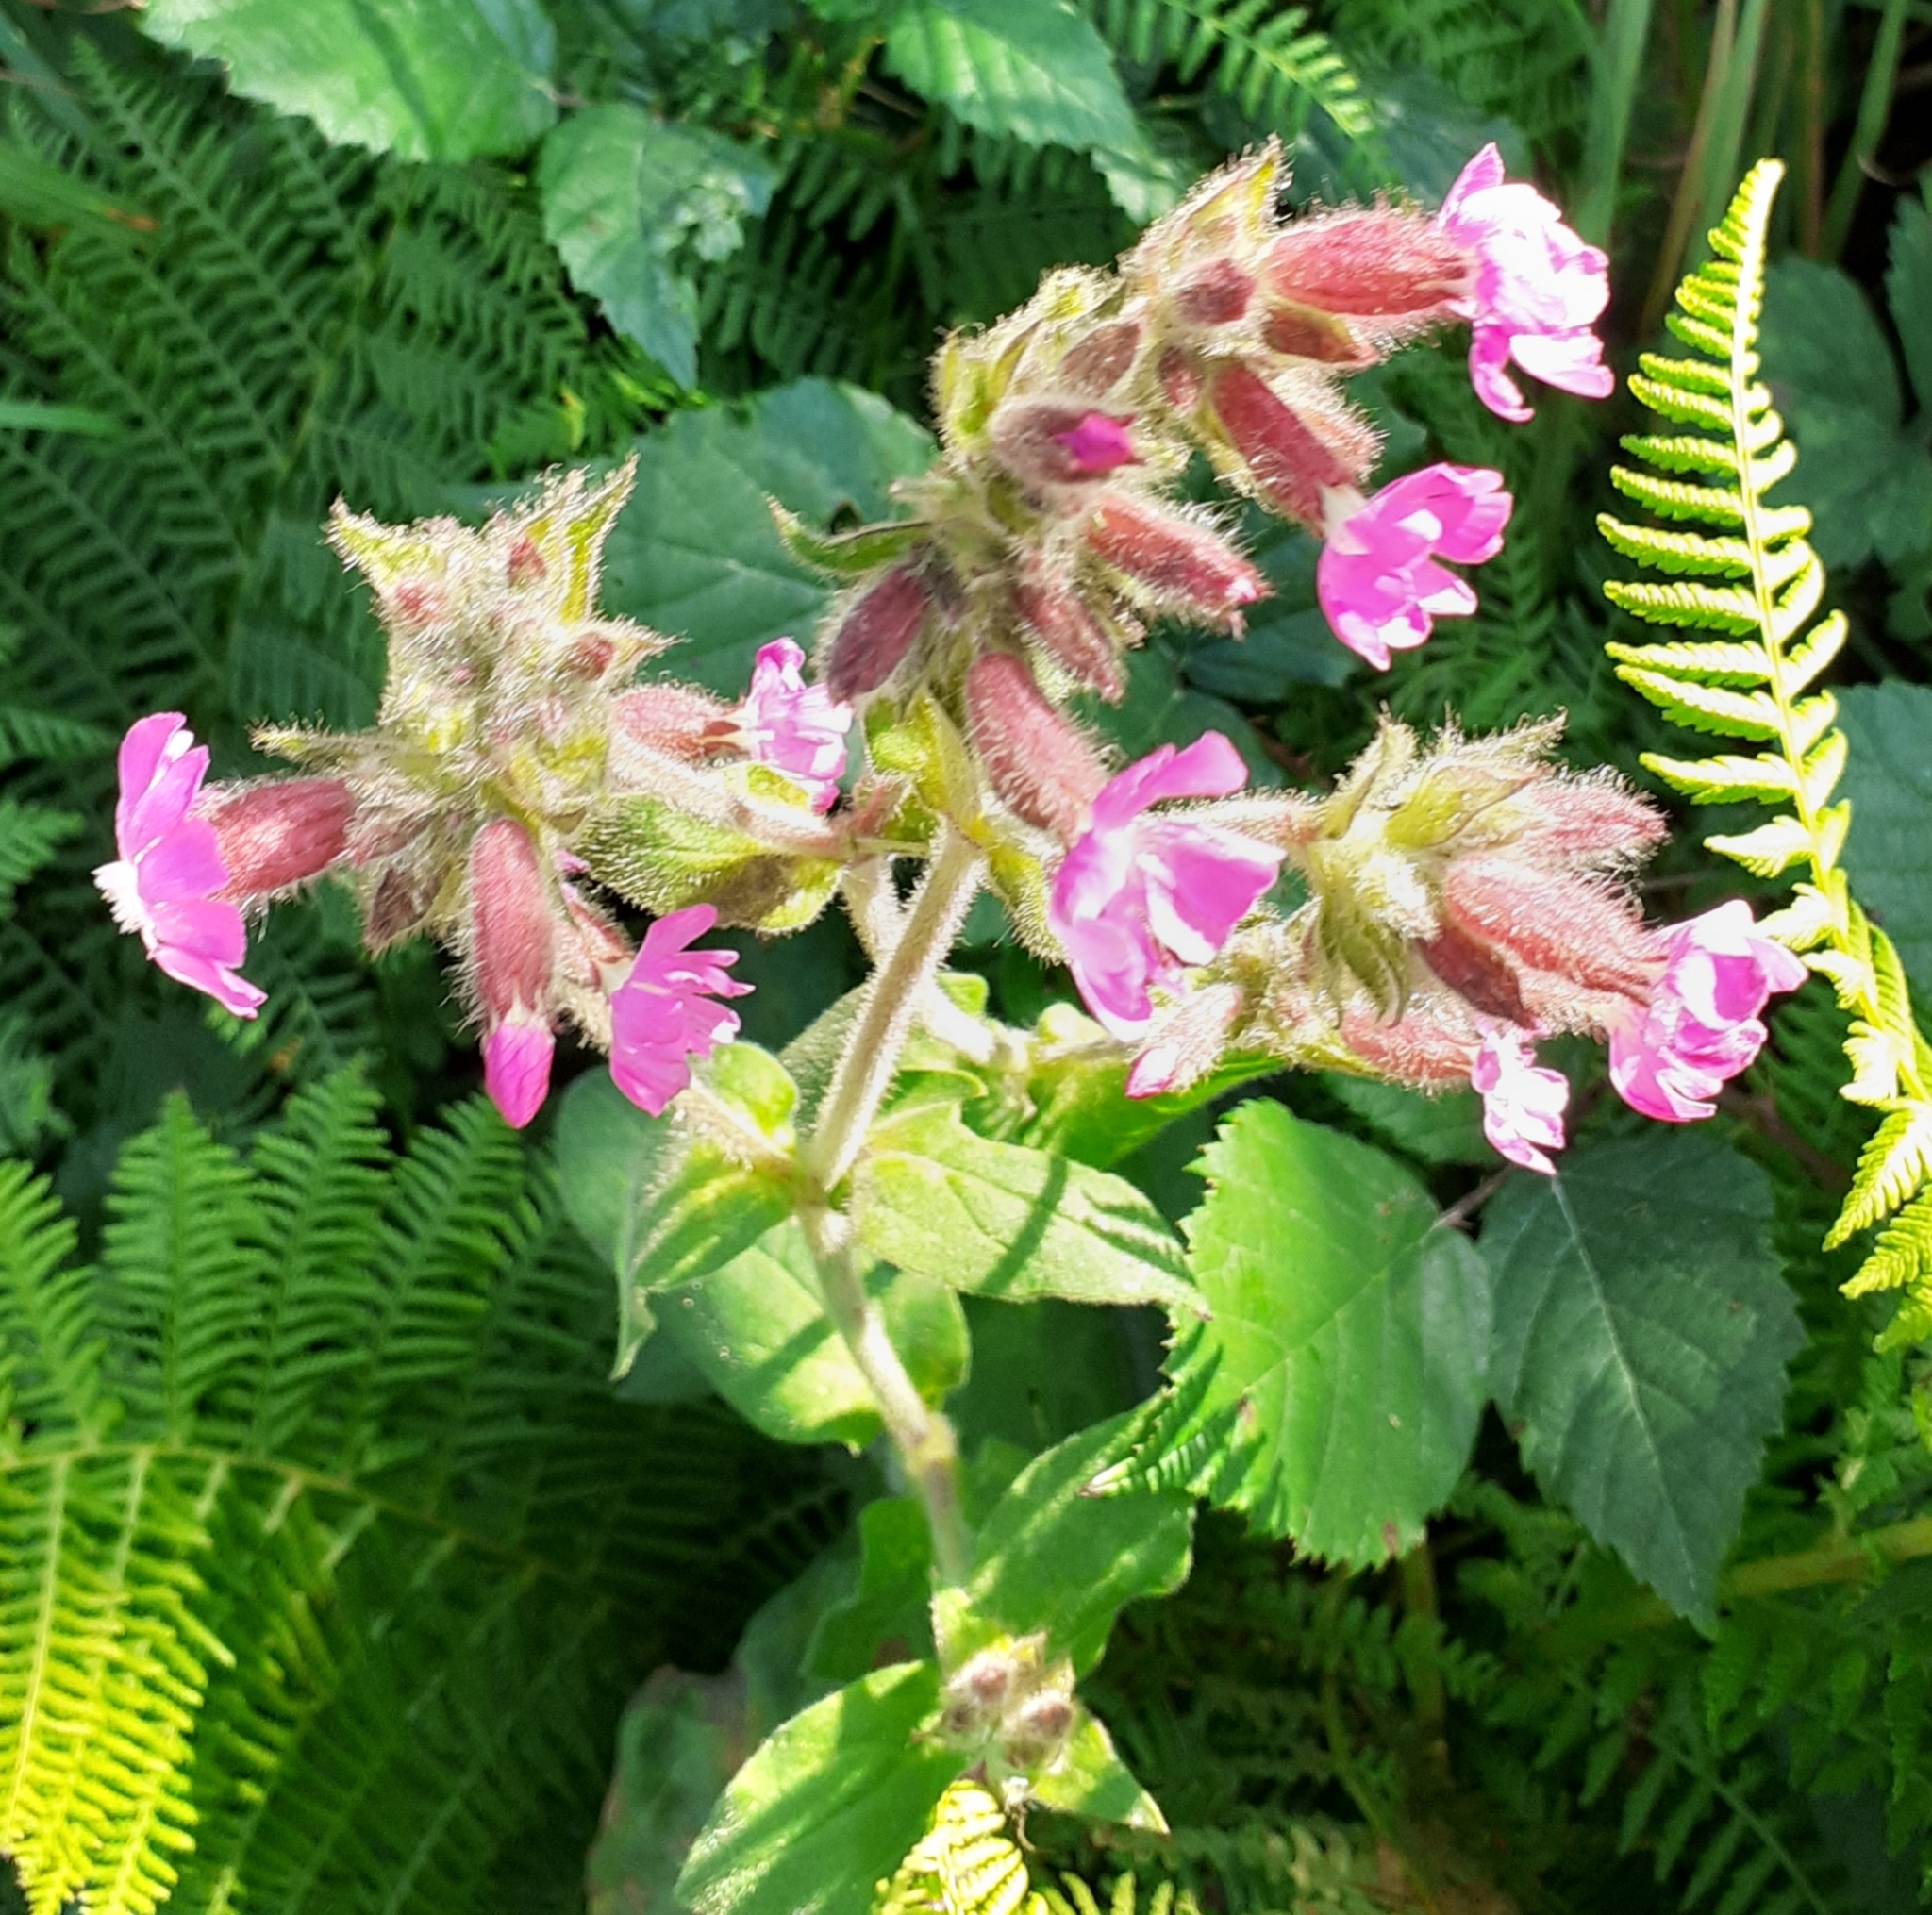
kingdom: Plantae
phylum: Tracheophyta
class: Magnoliopsida
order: Caryophyllales
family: Caryophyllaceae
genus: Silene
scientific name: Silene dioica
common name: Red campion
